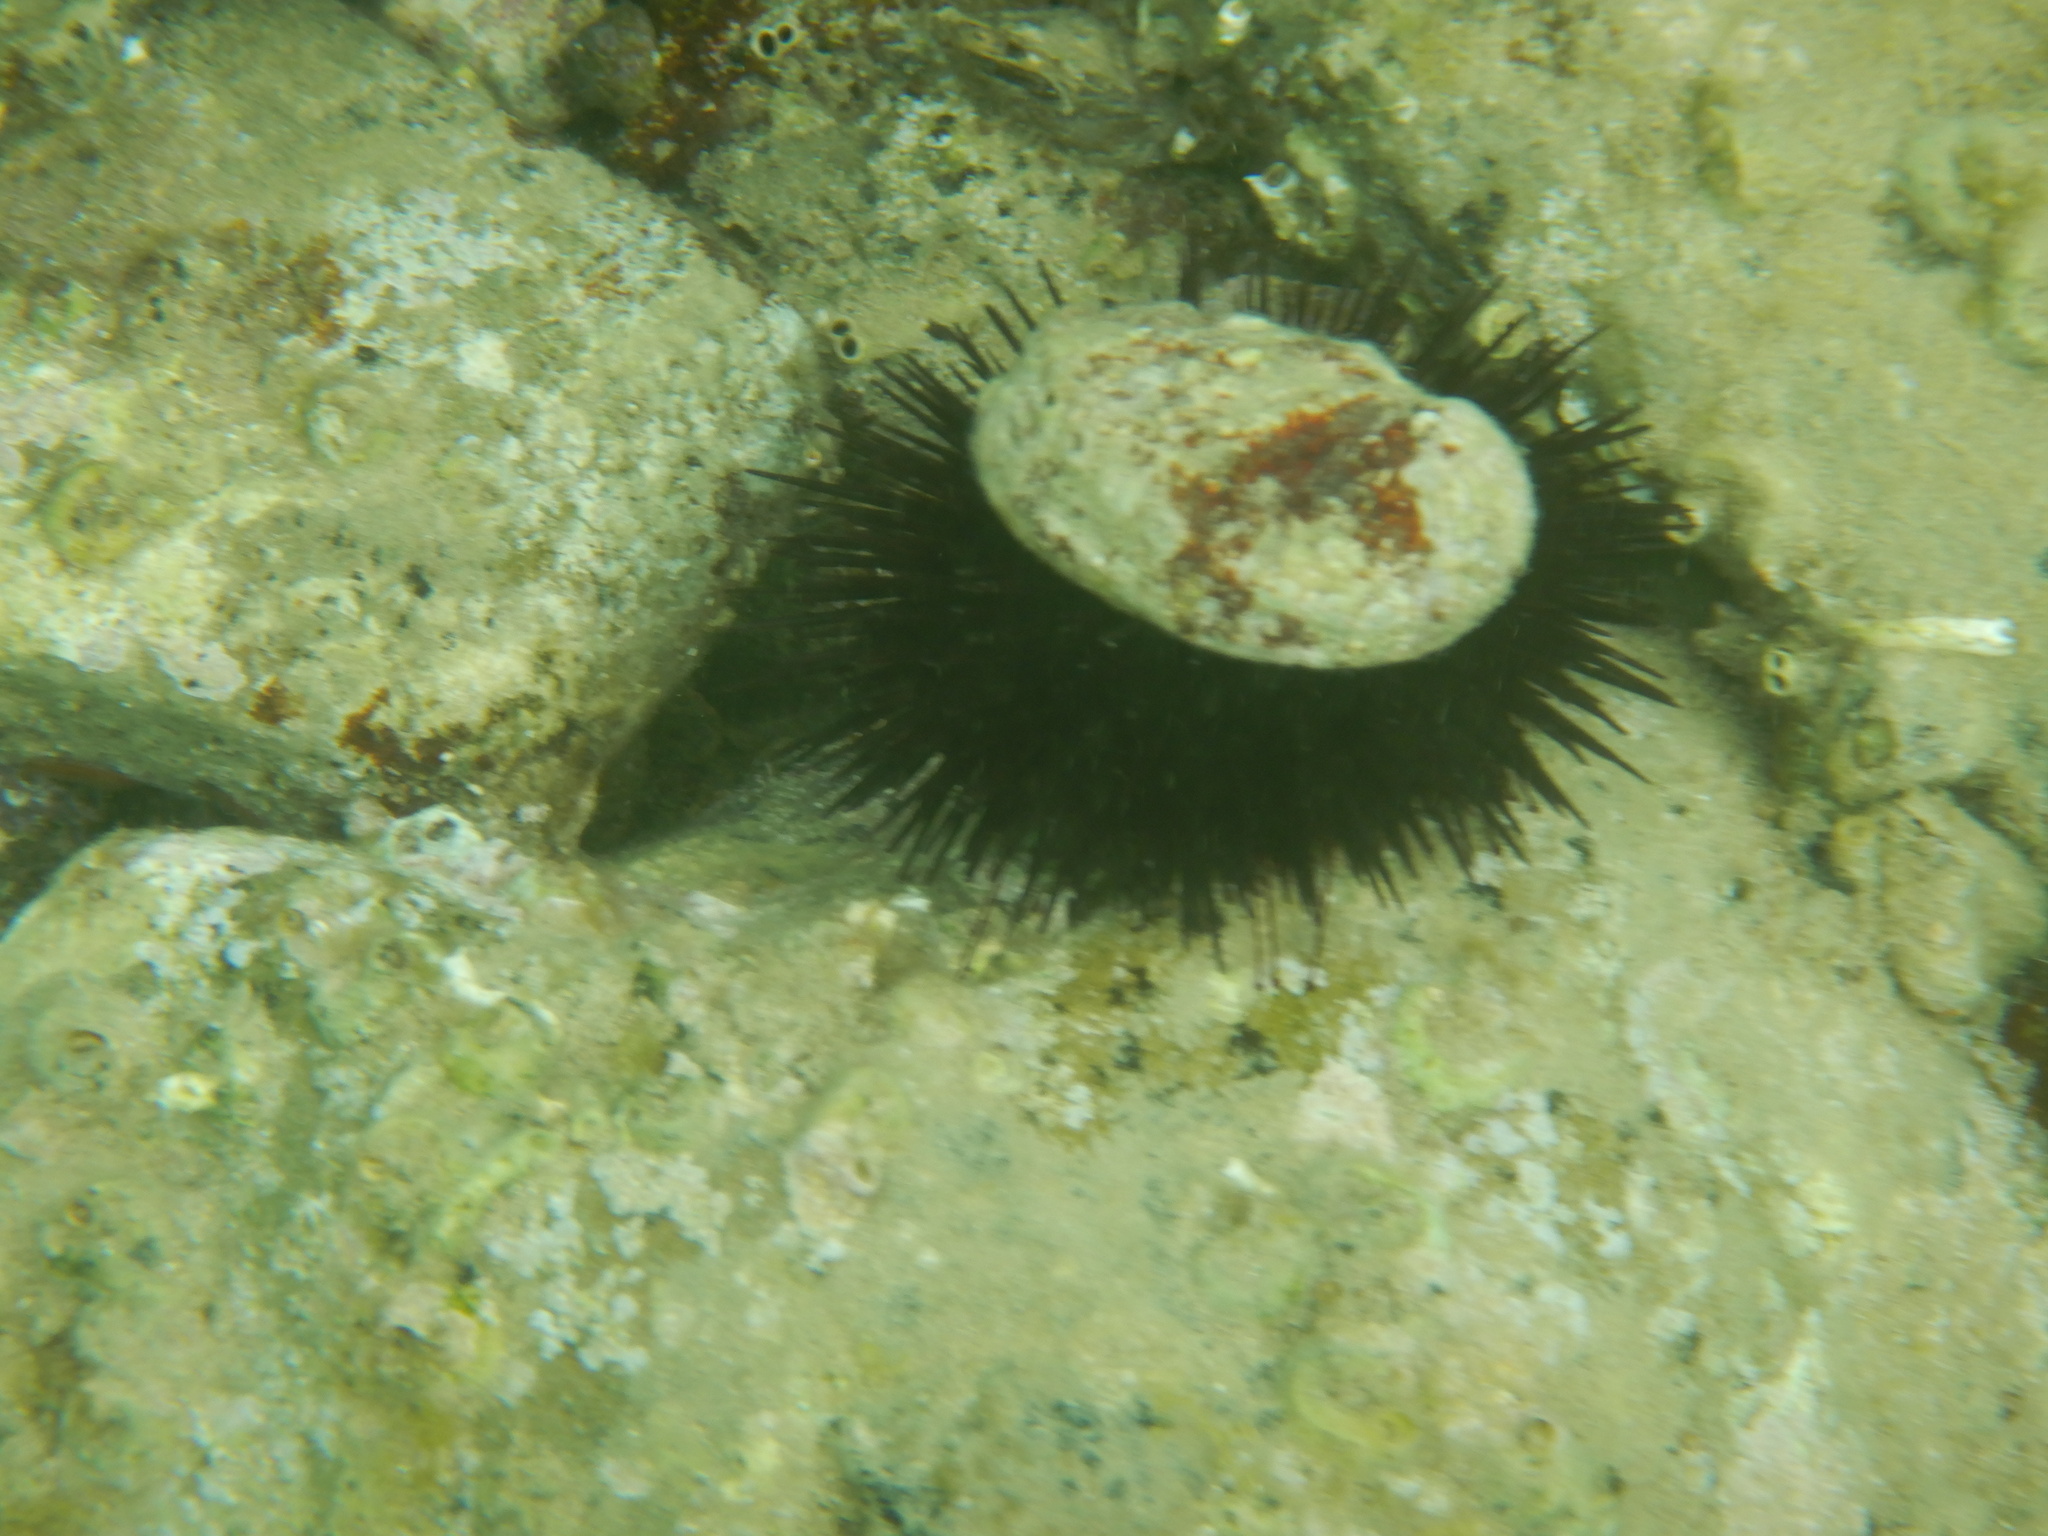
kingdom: Animalia
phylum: Echinodermata
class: Echinoidea
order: Camarodonta
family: Parechinidae
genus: Paracentrotus
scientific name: Paracentrotus lividus
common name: Purple sea urchin
